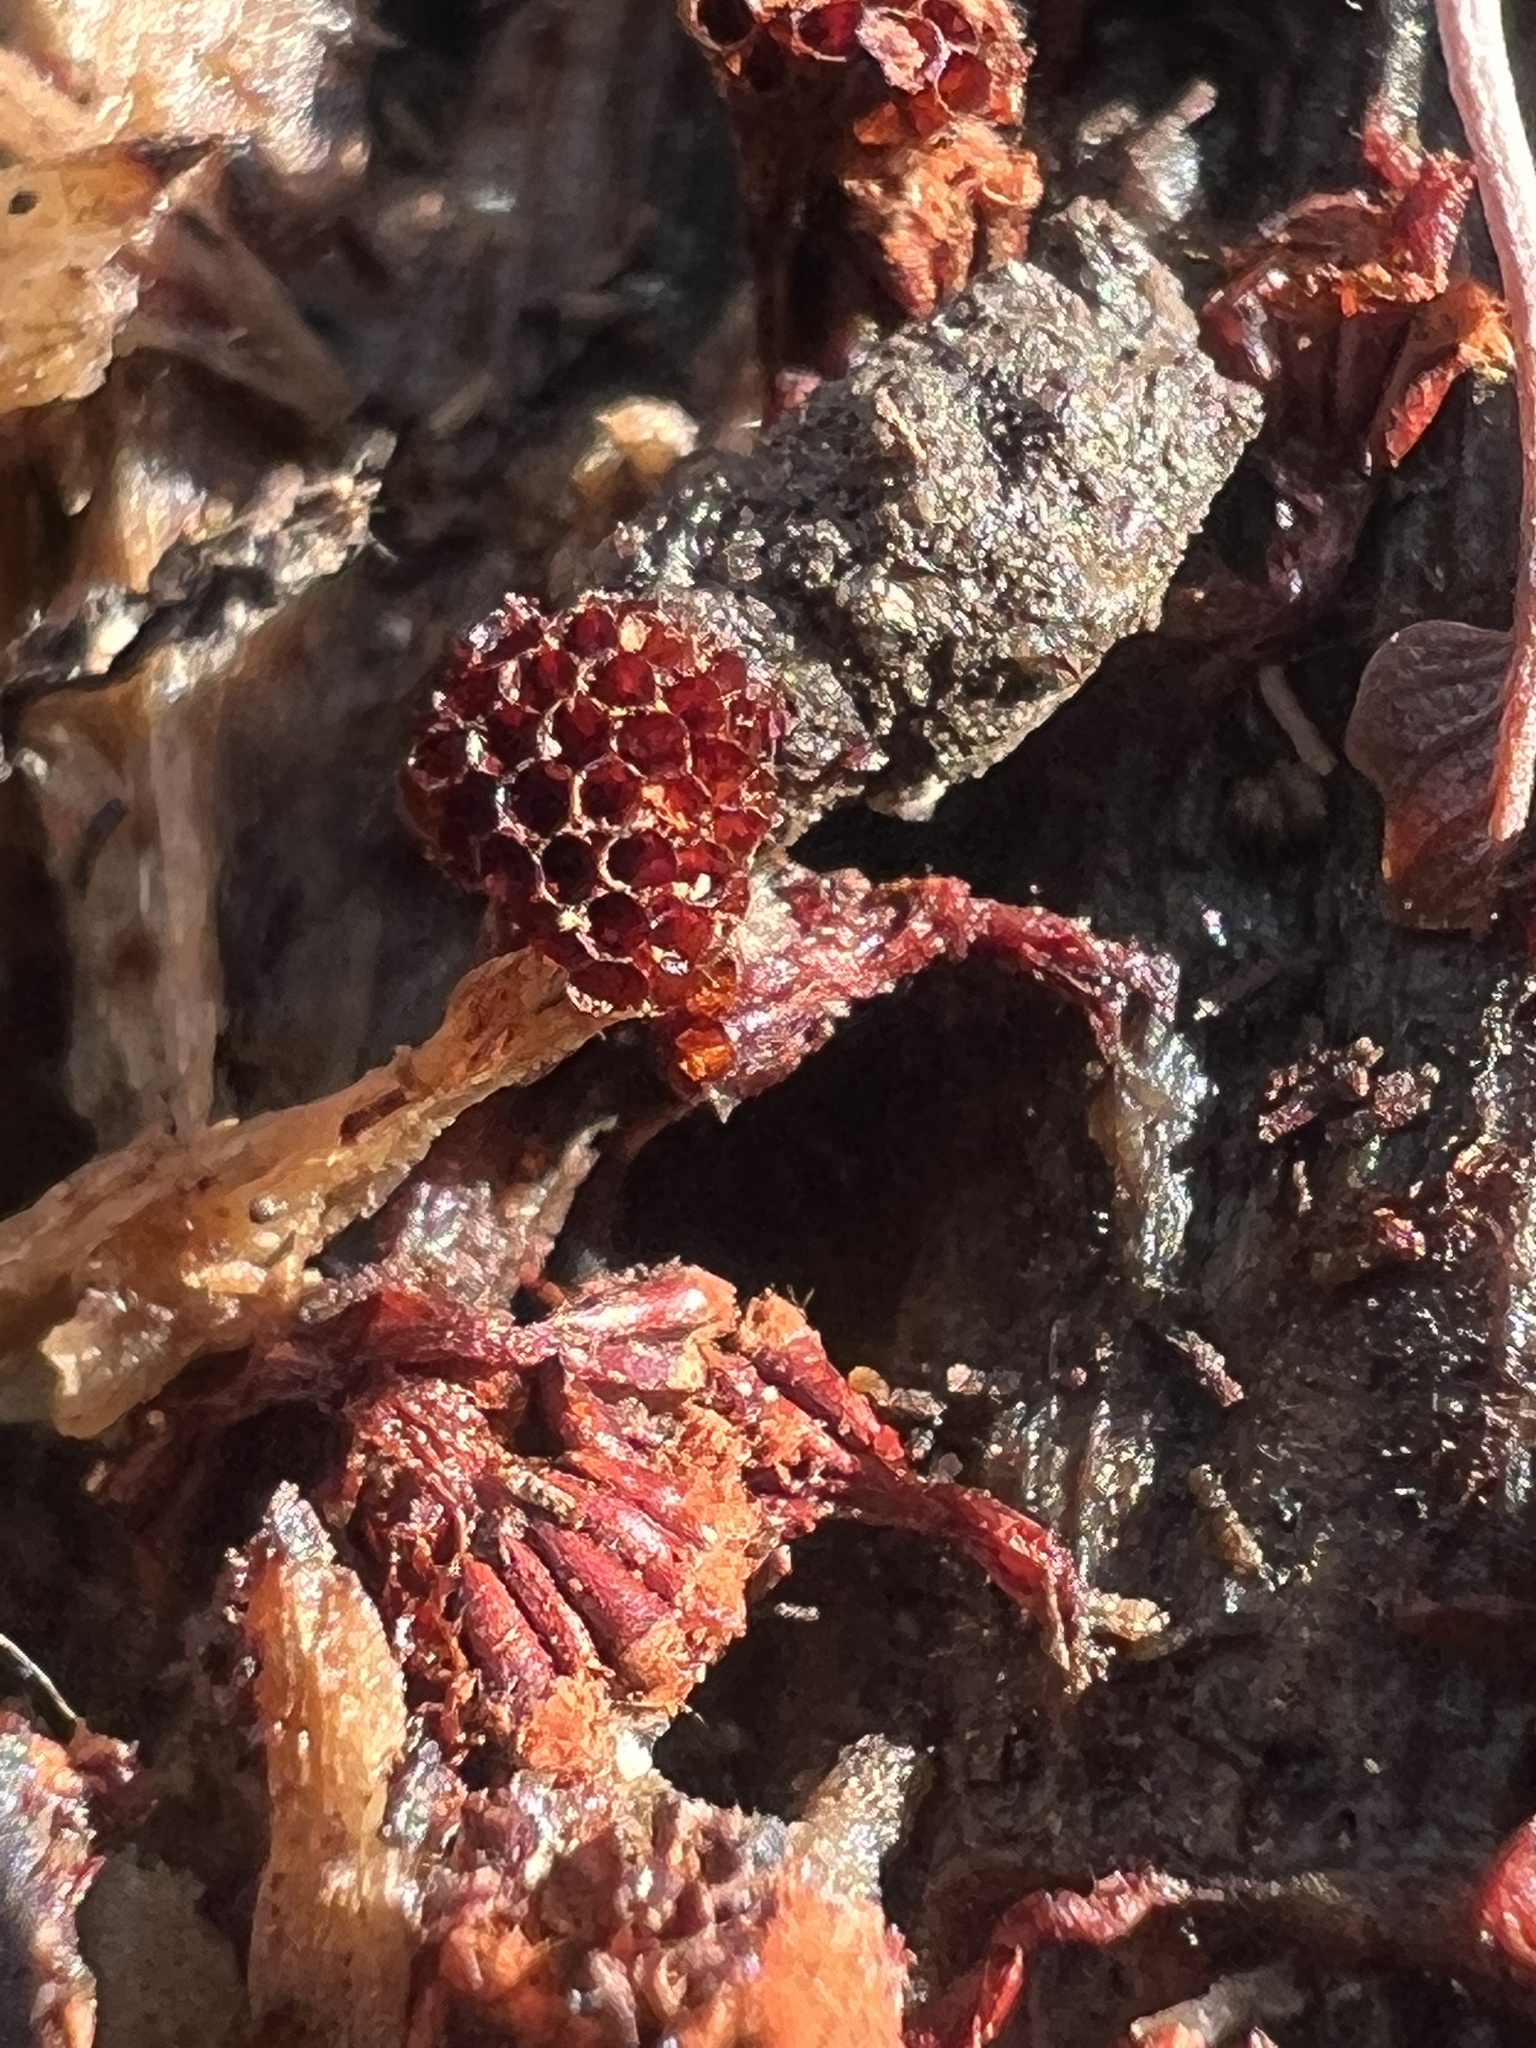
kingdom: Protozoa
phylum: Mycetozoa
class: Myxomycetes
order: Trichiales
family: Trichiaceae
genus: Metatrichia
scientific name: Metatrichia vesparia
